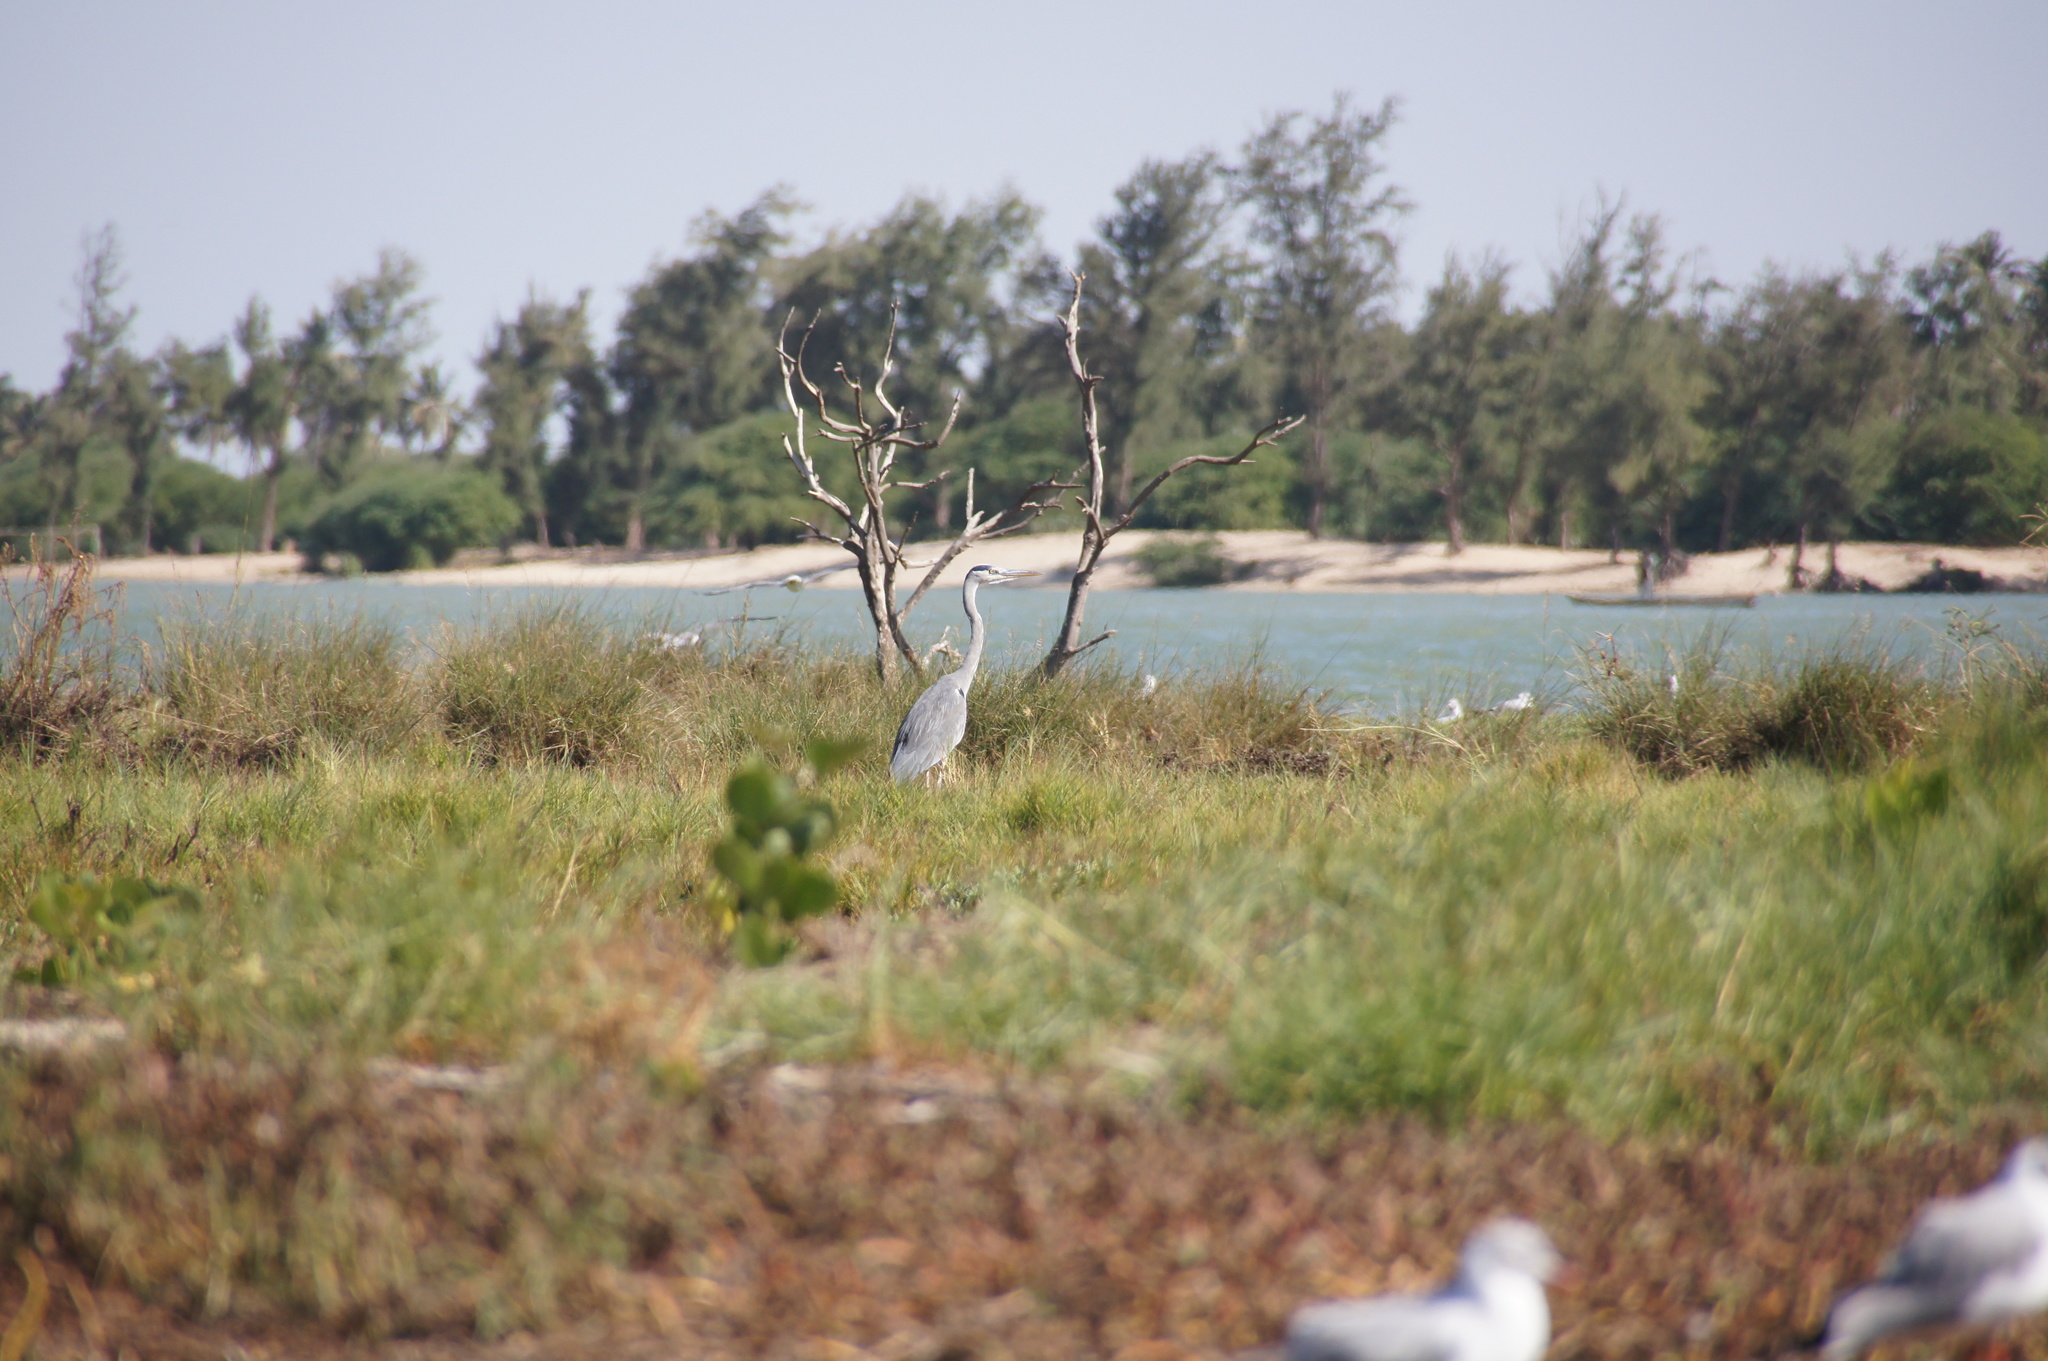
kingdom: Animalia
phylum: Chordata
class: Aves
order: Pelecaniformes
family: Ardeidae
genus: Ardea
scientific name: Ardea cinerea
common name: Grey heron
